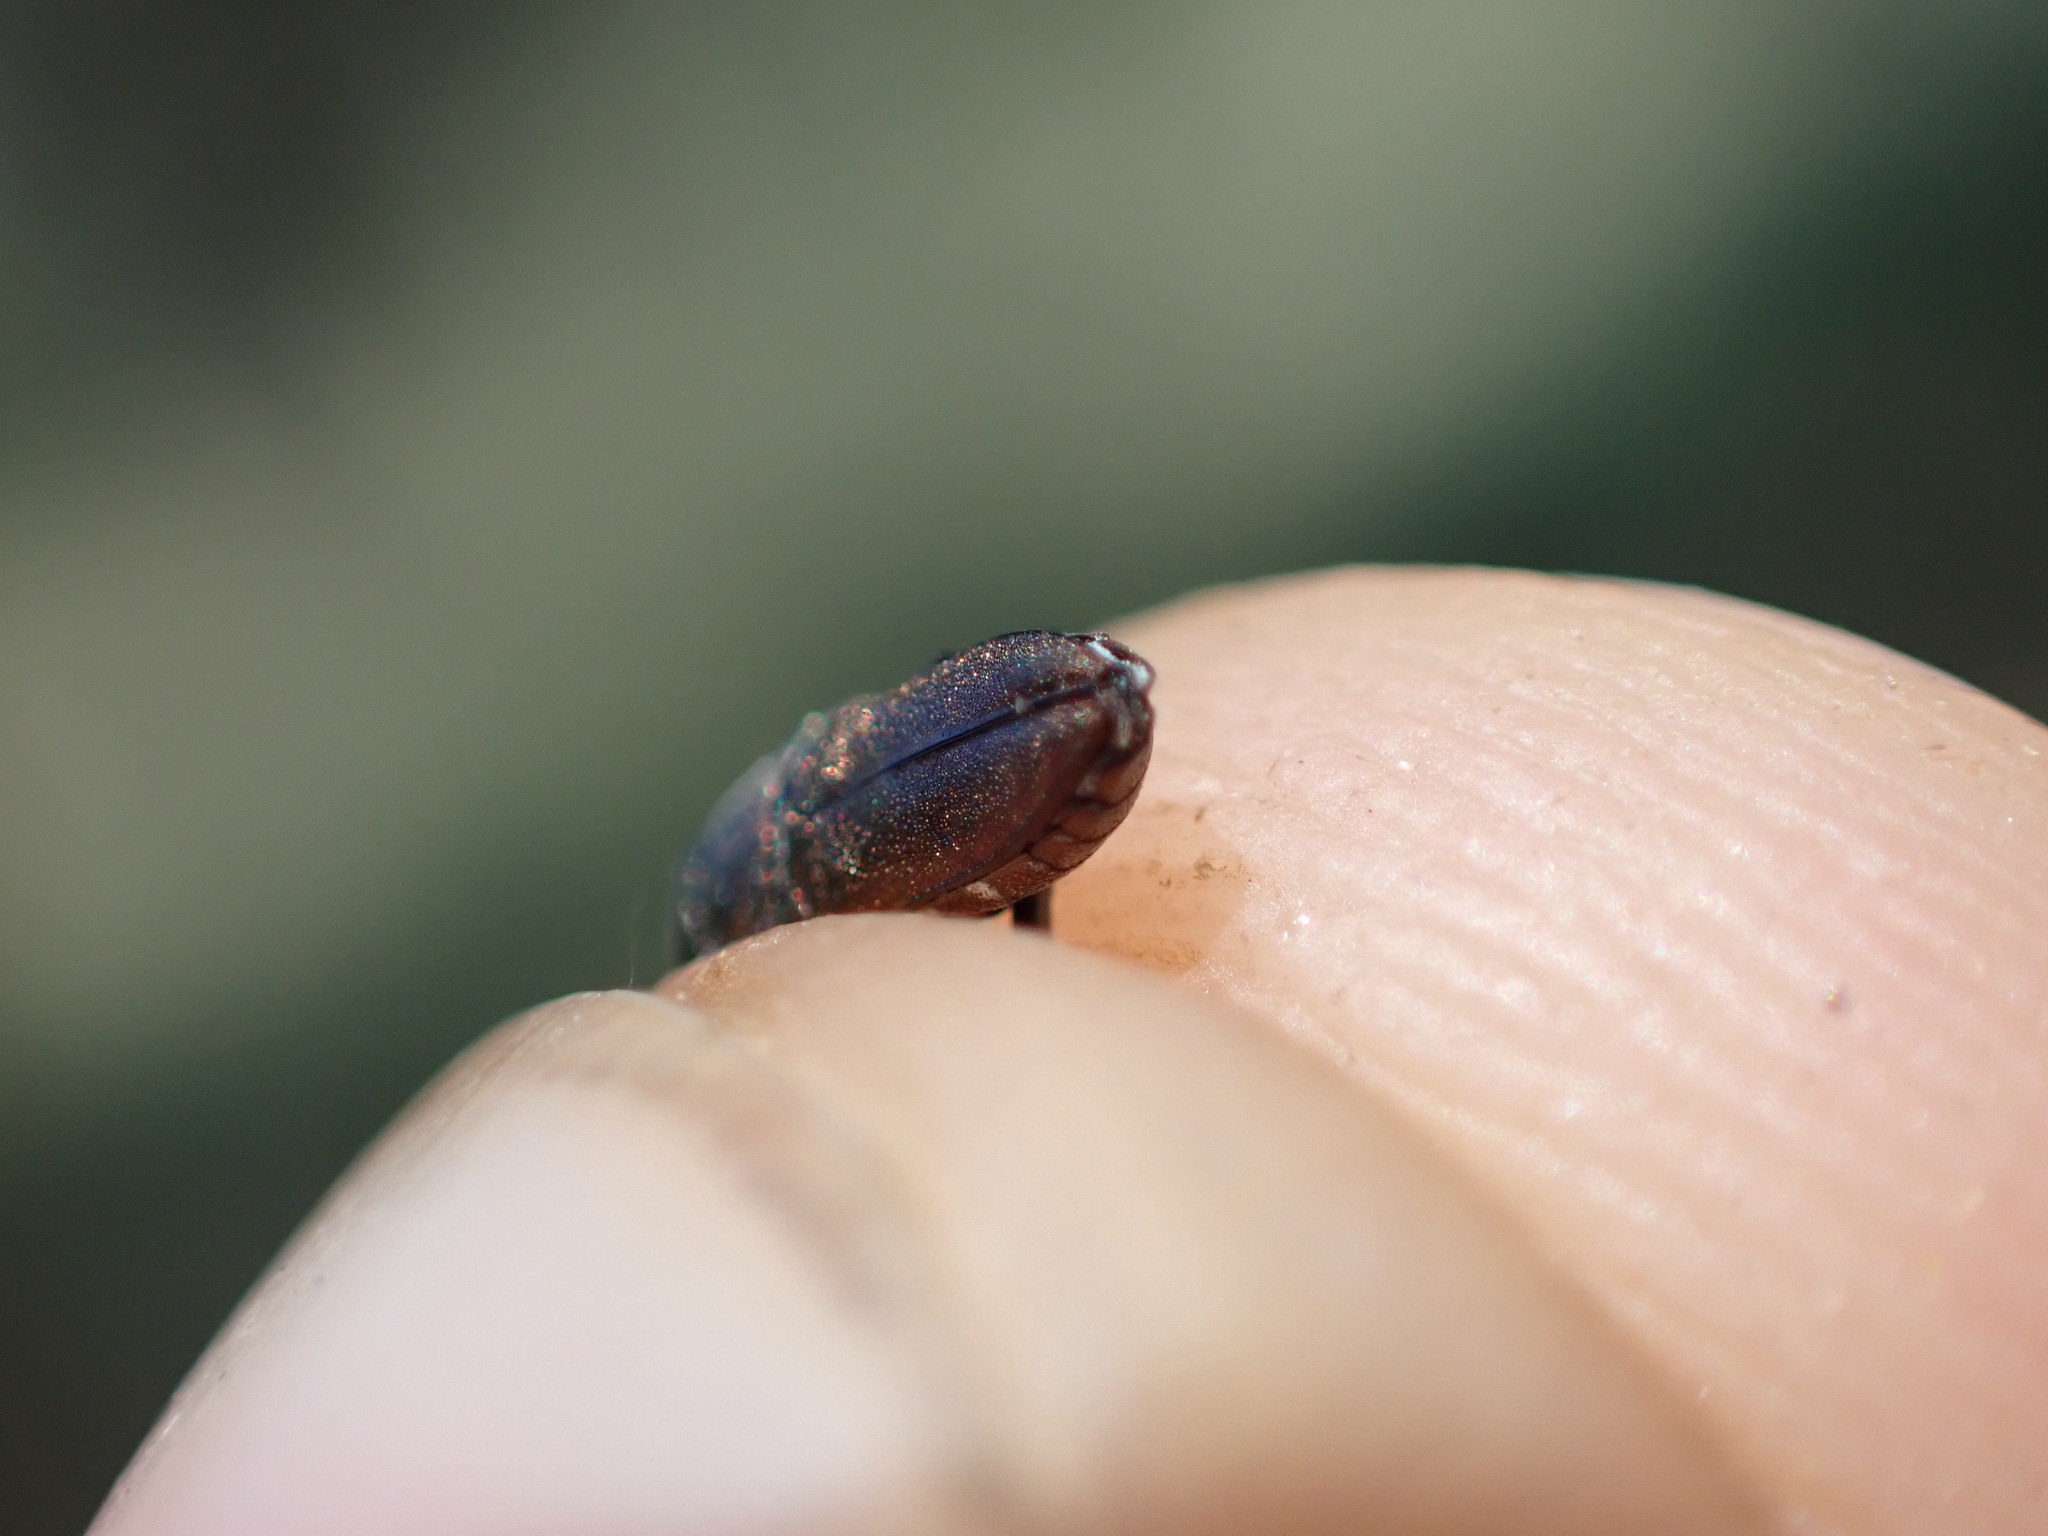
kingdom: Animalia
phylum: Arthropoda
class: Insecta
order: Coleoptera
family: Buprestidae
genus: Anthaxia
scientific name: Anthaxia umbellatarum
